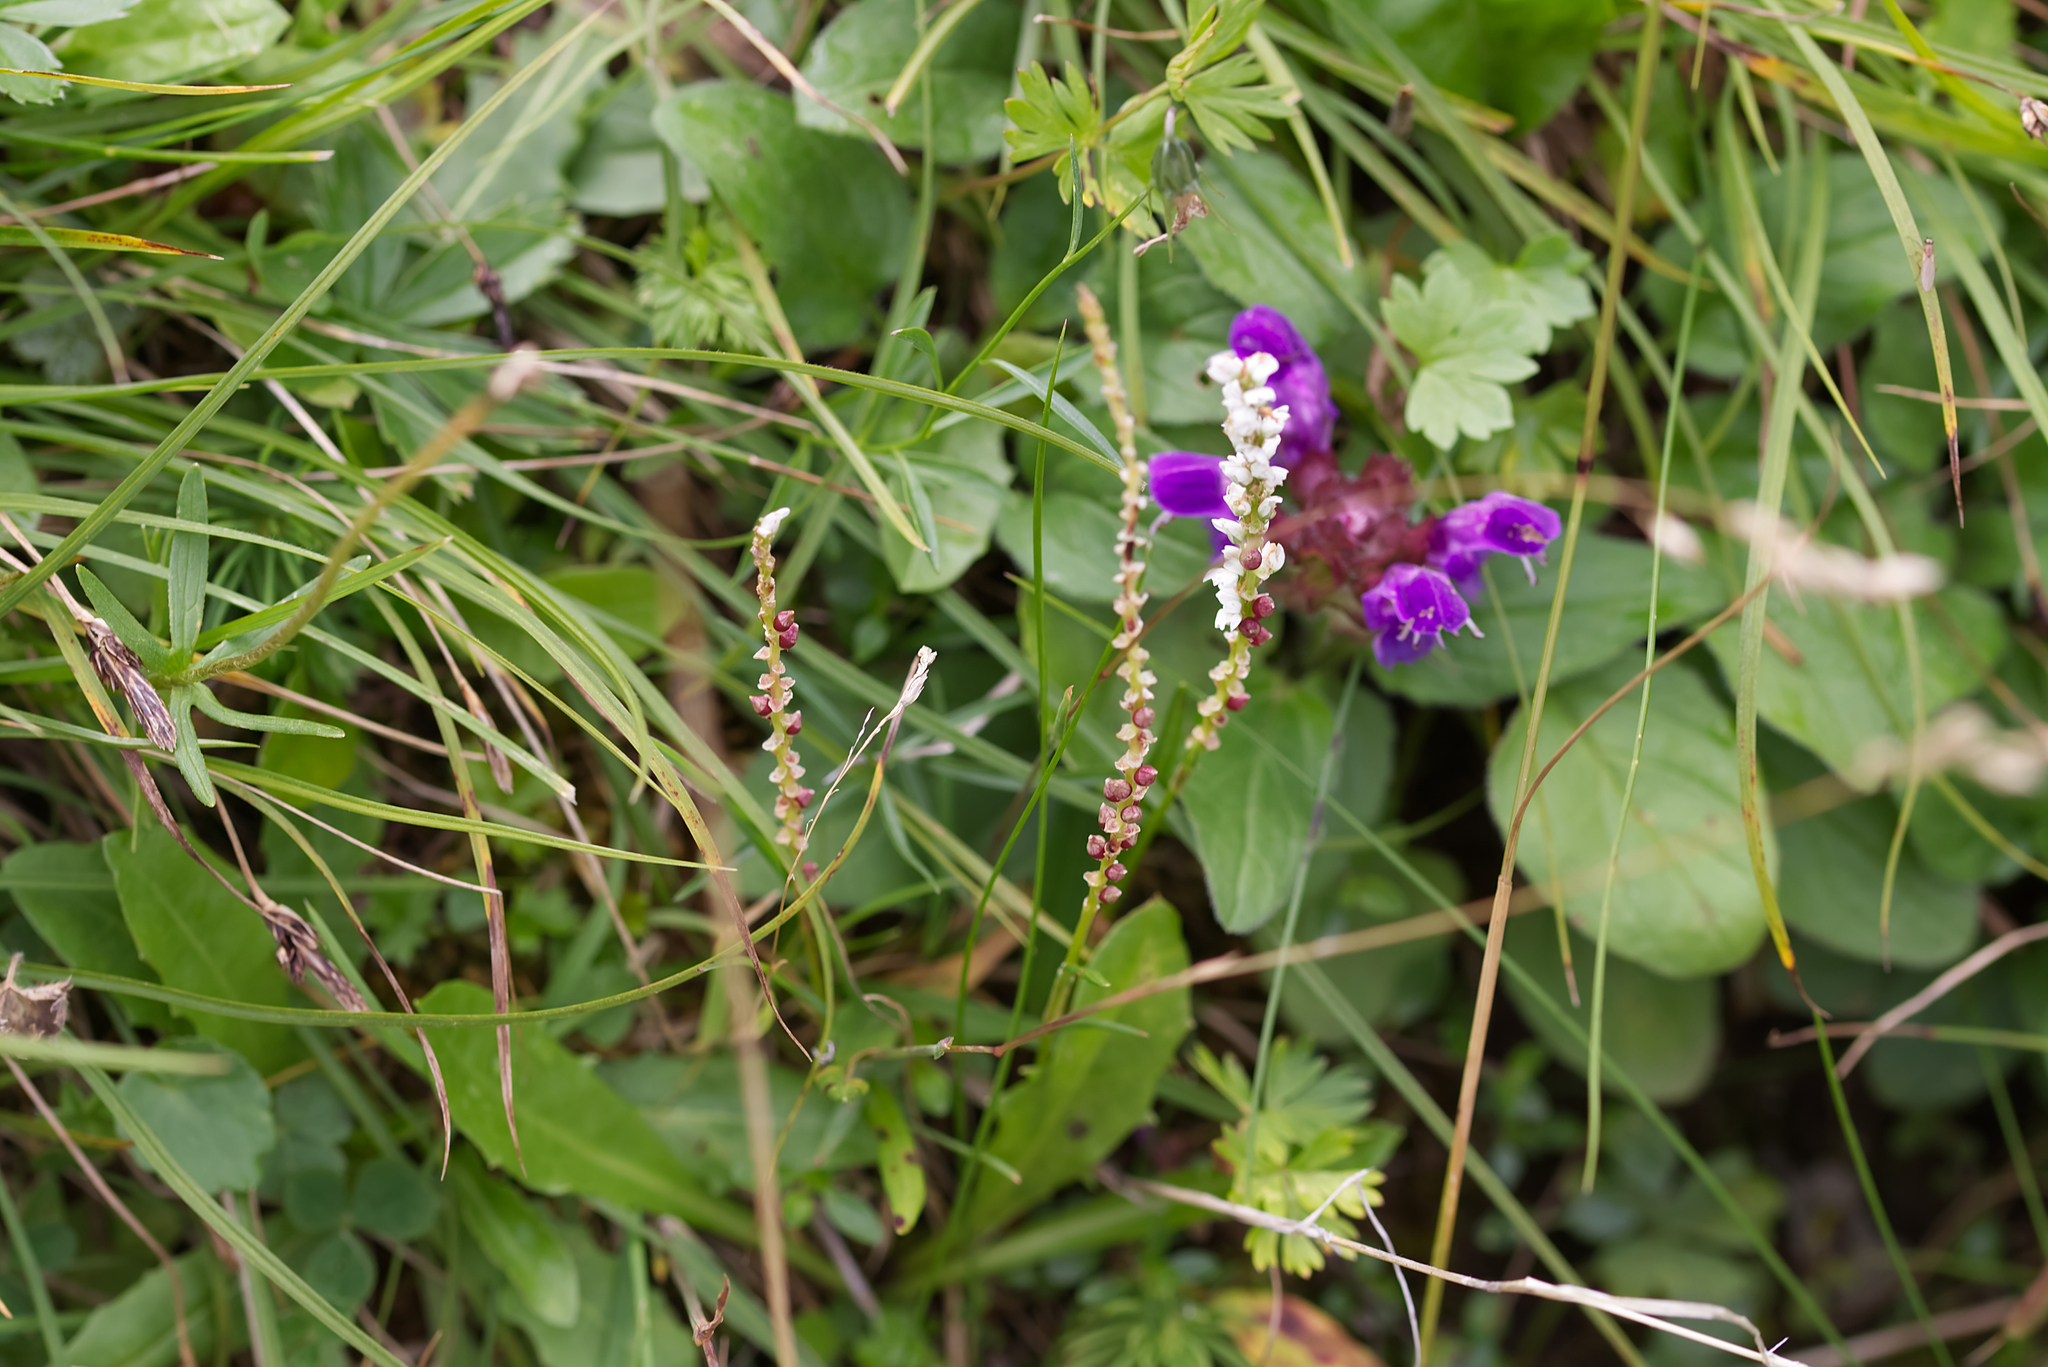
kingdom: Plantae
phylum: Tracheophyta
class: Magnoliopsida
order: Caryophyllales
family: Polygonaceae
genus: Bistorta
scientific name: Bistorta vivipara
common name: Alpine bistort
